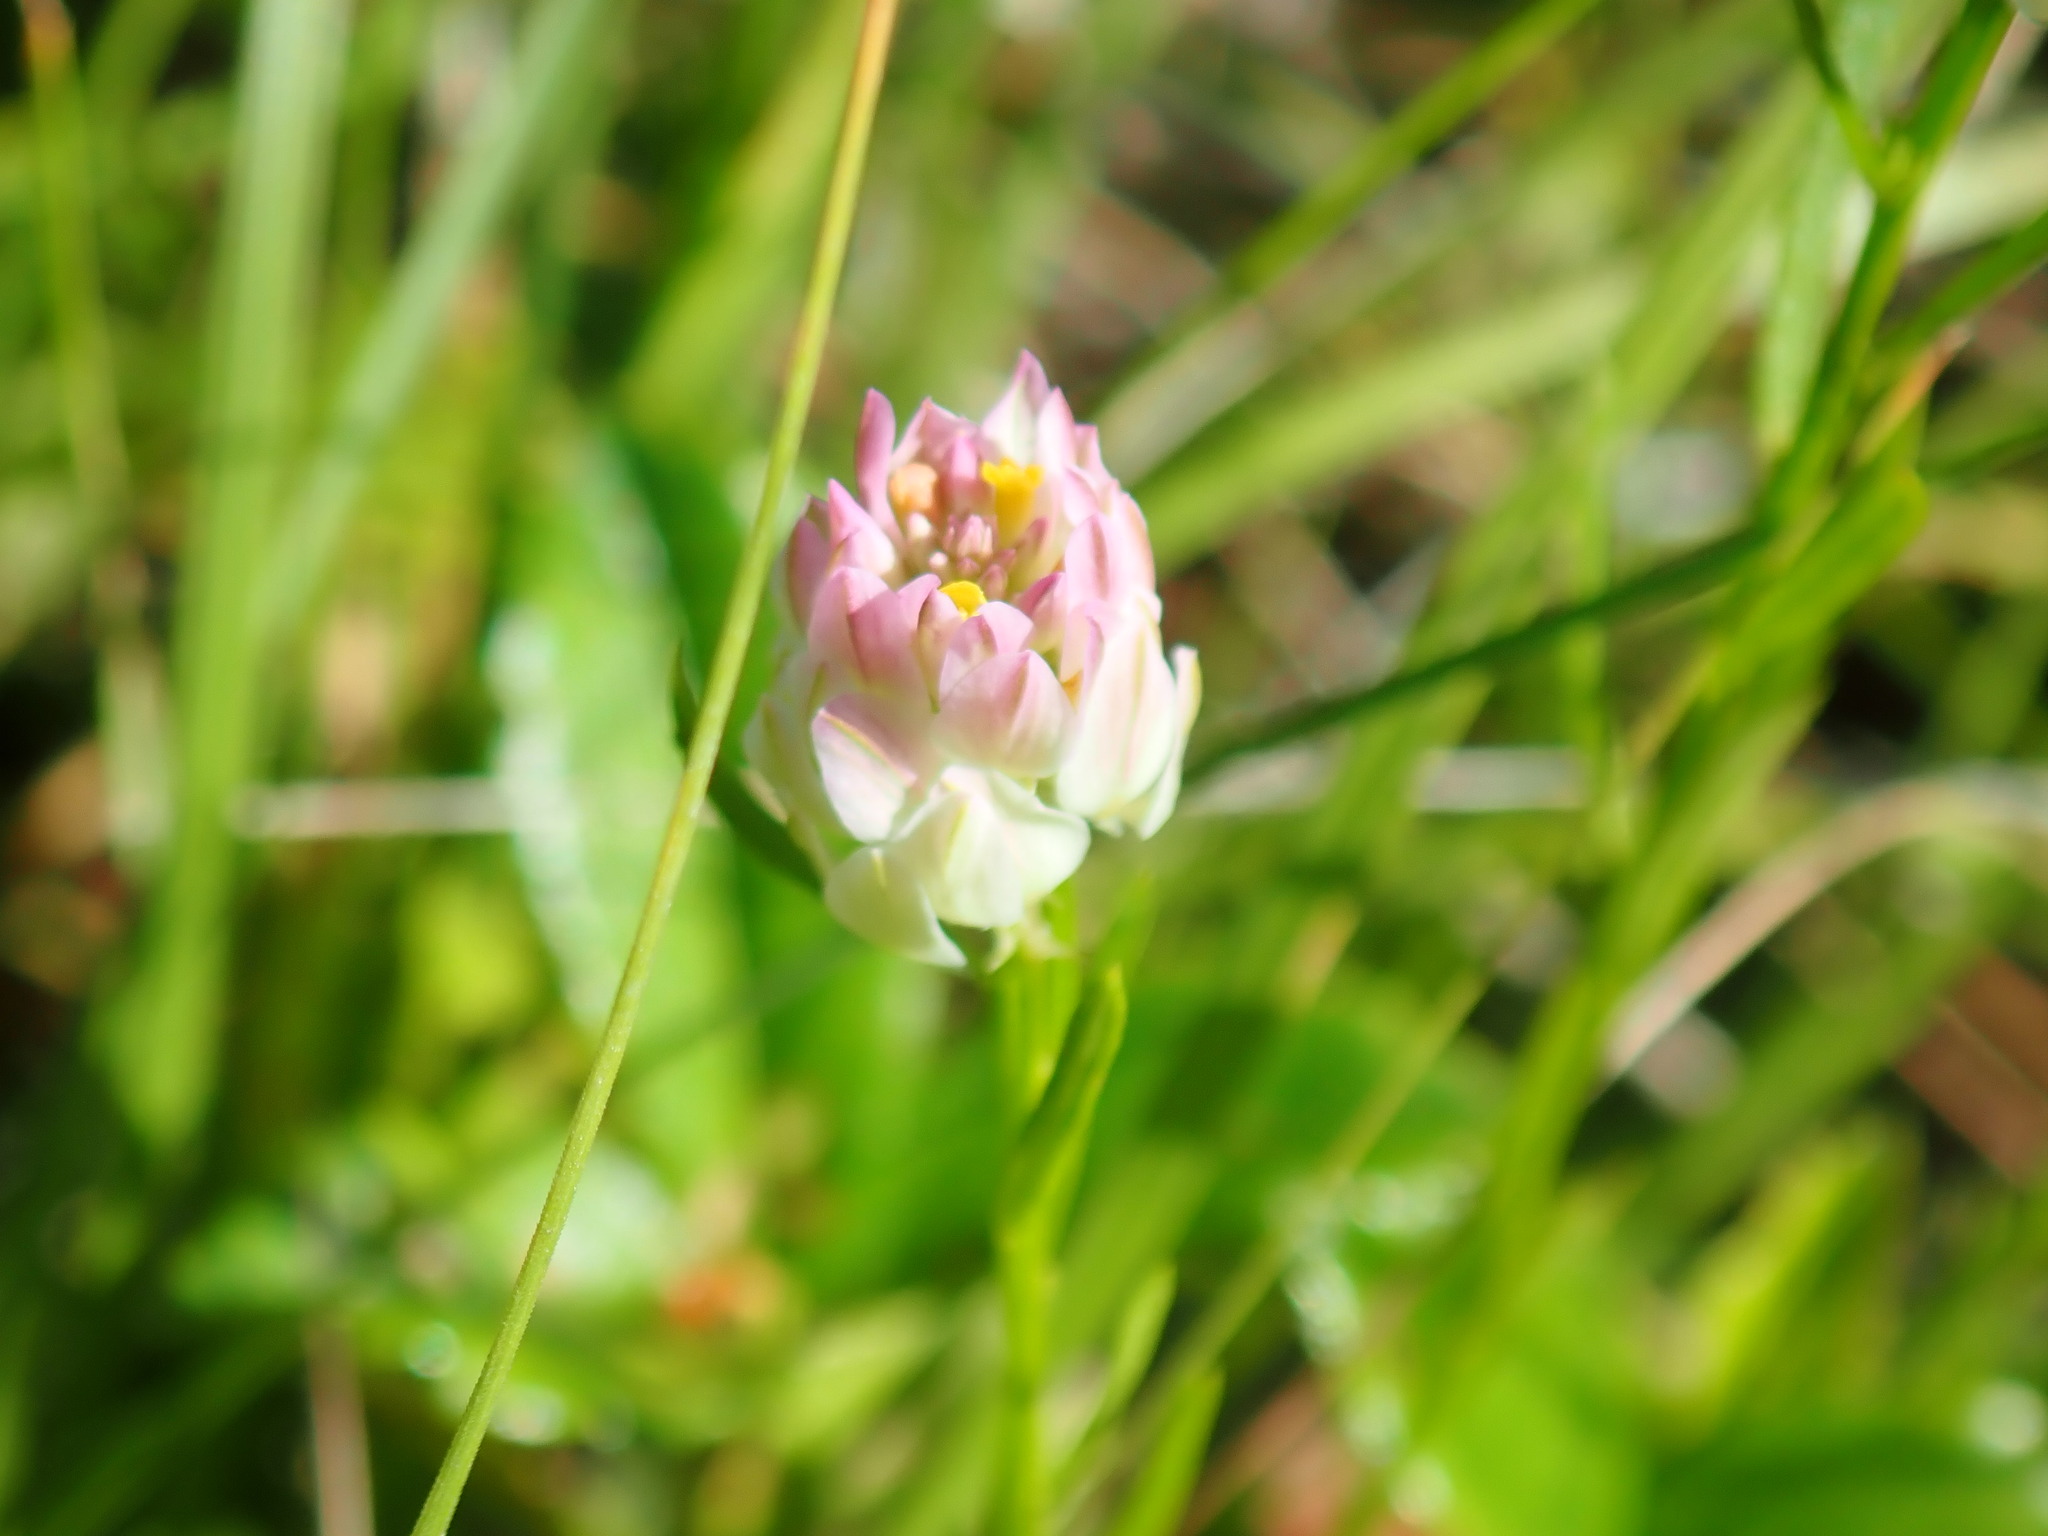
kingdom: Plantae
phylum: Tracheophyta
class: Magnoliopsida
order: Fabales
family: Polygalaceae
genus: Polygala
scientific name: Polygala sanguinea
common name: Blood milkwort
